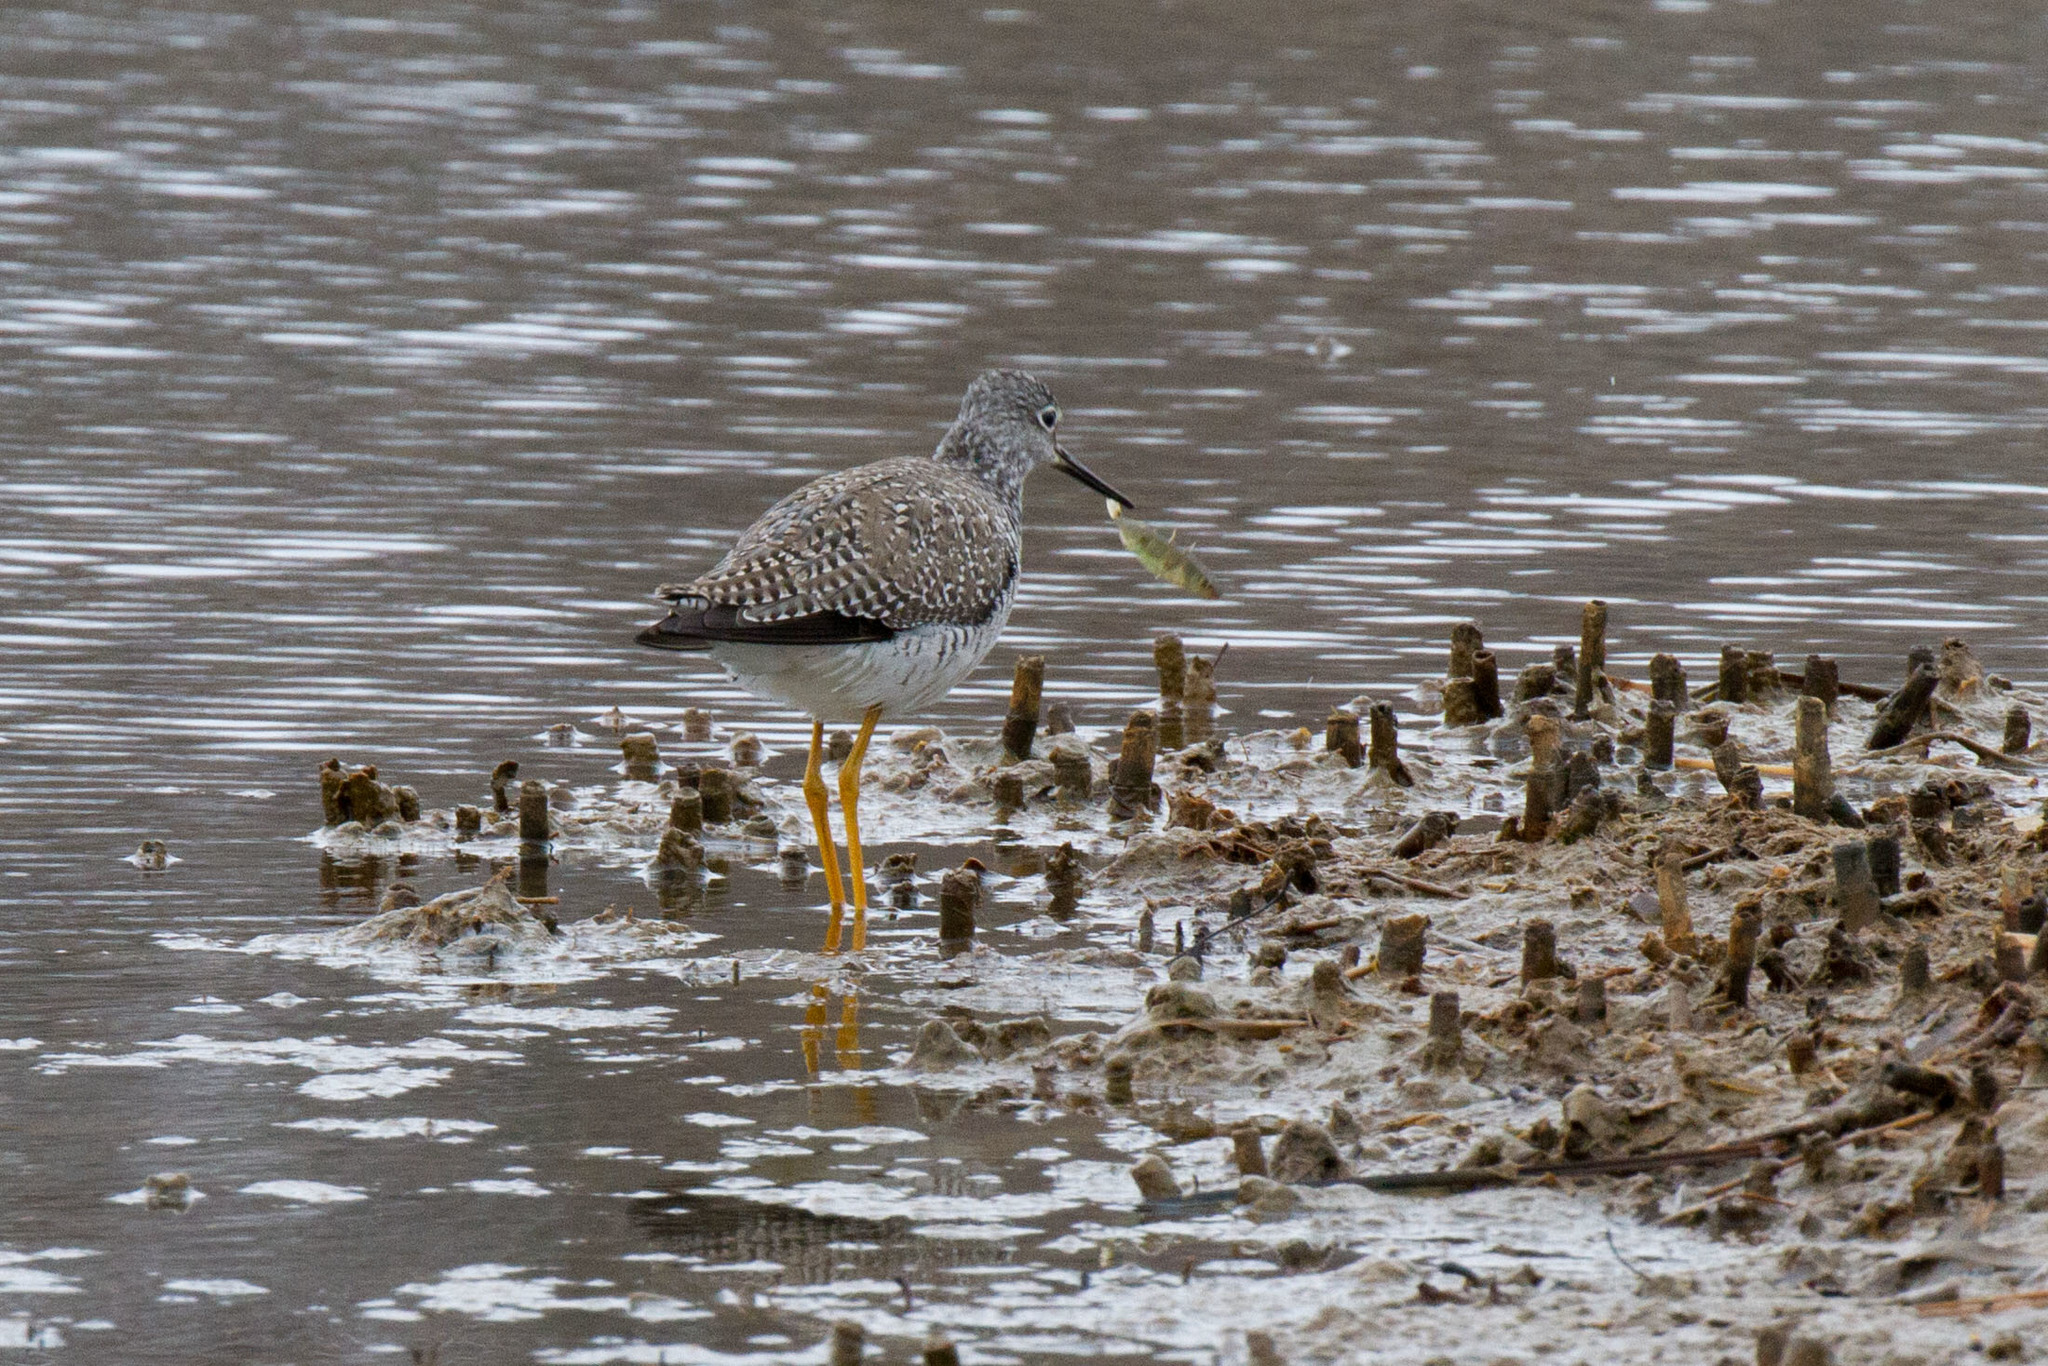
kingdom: Animalia
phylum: Chordata
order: Gasterosteiformes
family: Gasterosteidae
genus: Gasterosteus
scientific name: Gasterosteus aculeatus
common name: Three-spined stickleback
